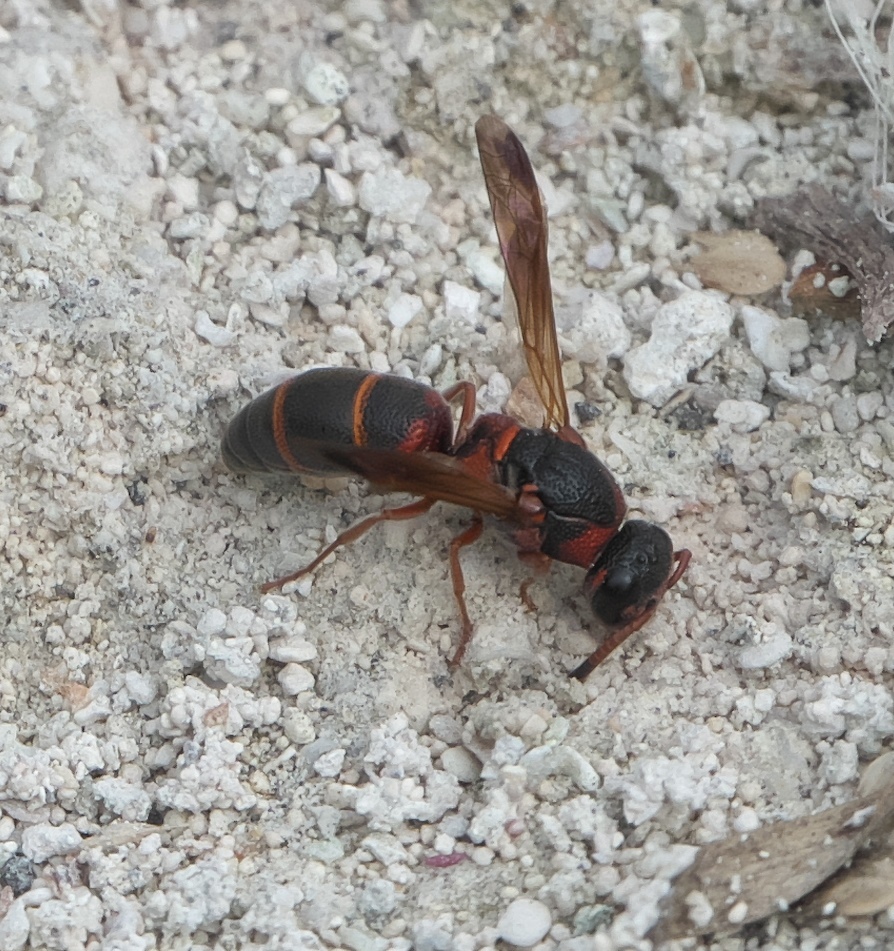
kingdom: Animalia
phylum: Arthropoda
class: Insecta
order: Hymenoptera
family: Eumenidae
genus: Parancistrocerus
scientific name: Parancistrocerus fulvipes
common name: Potter wasp
